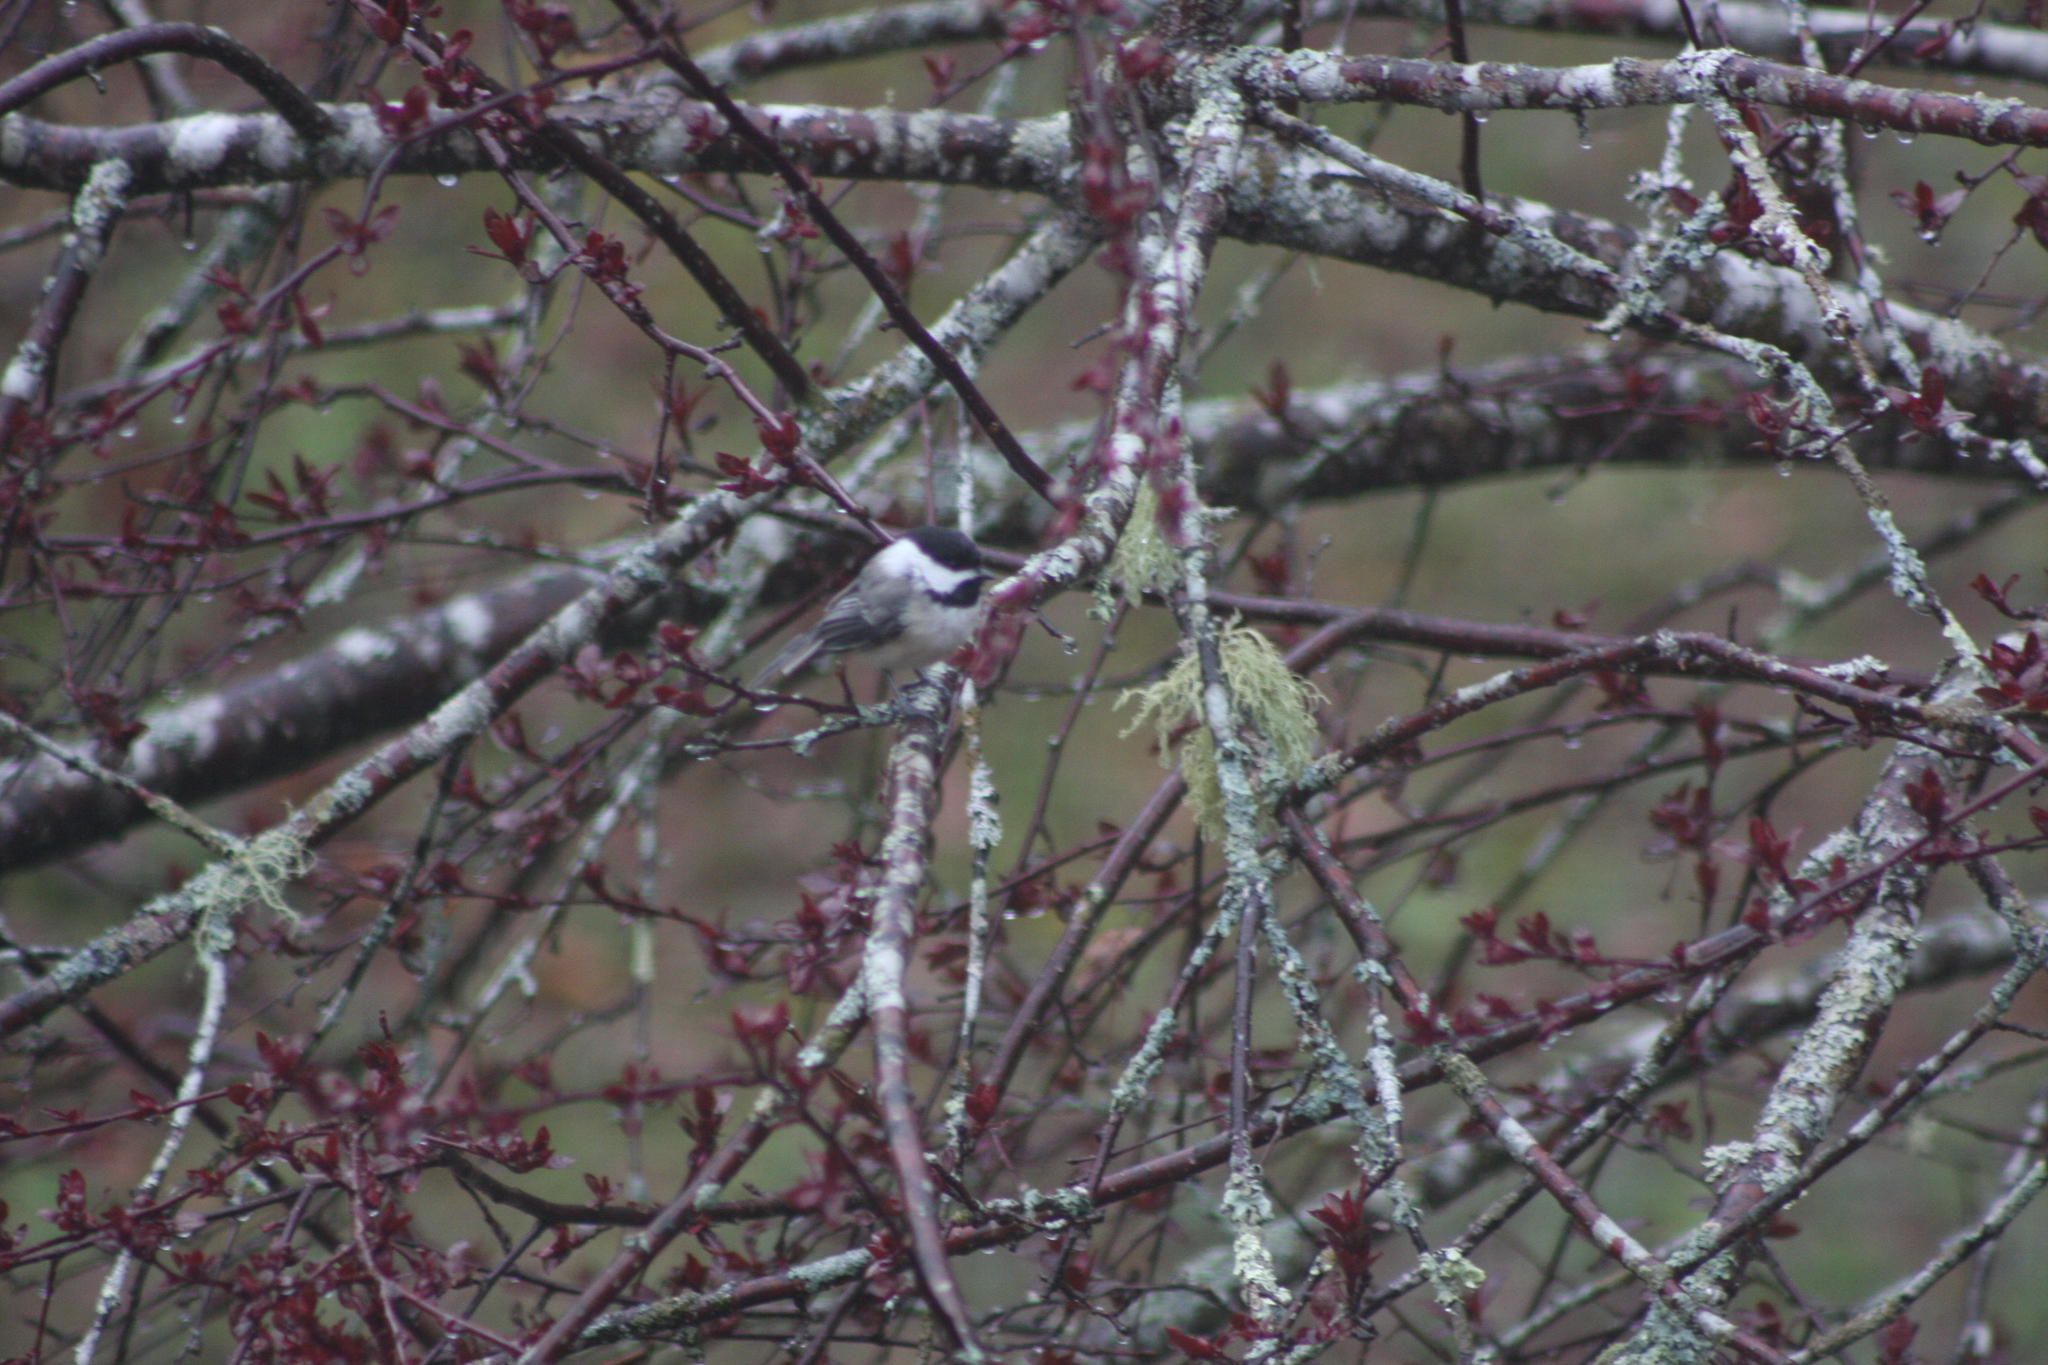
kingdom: Animalia
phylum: Chordata
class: Aves
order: Passeriformes
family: Paridae
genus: Poecile
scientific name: Poecile atricapillus
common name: Black-capped chickadee
